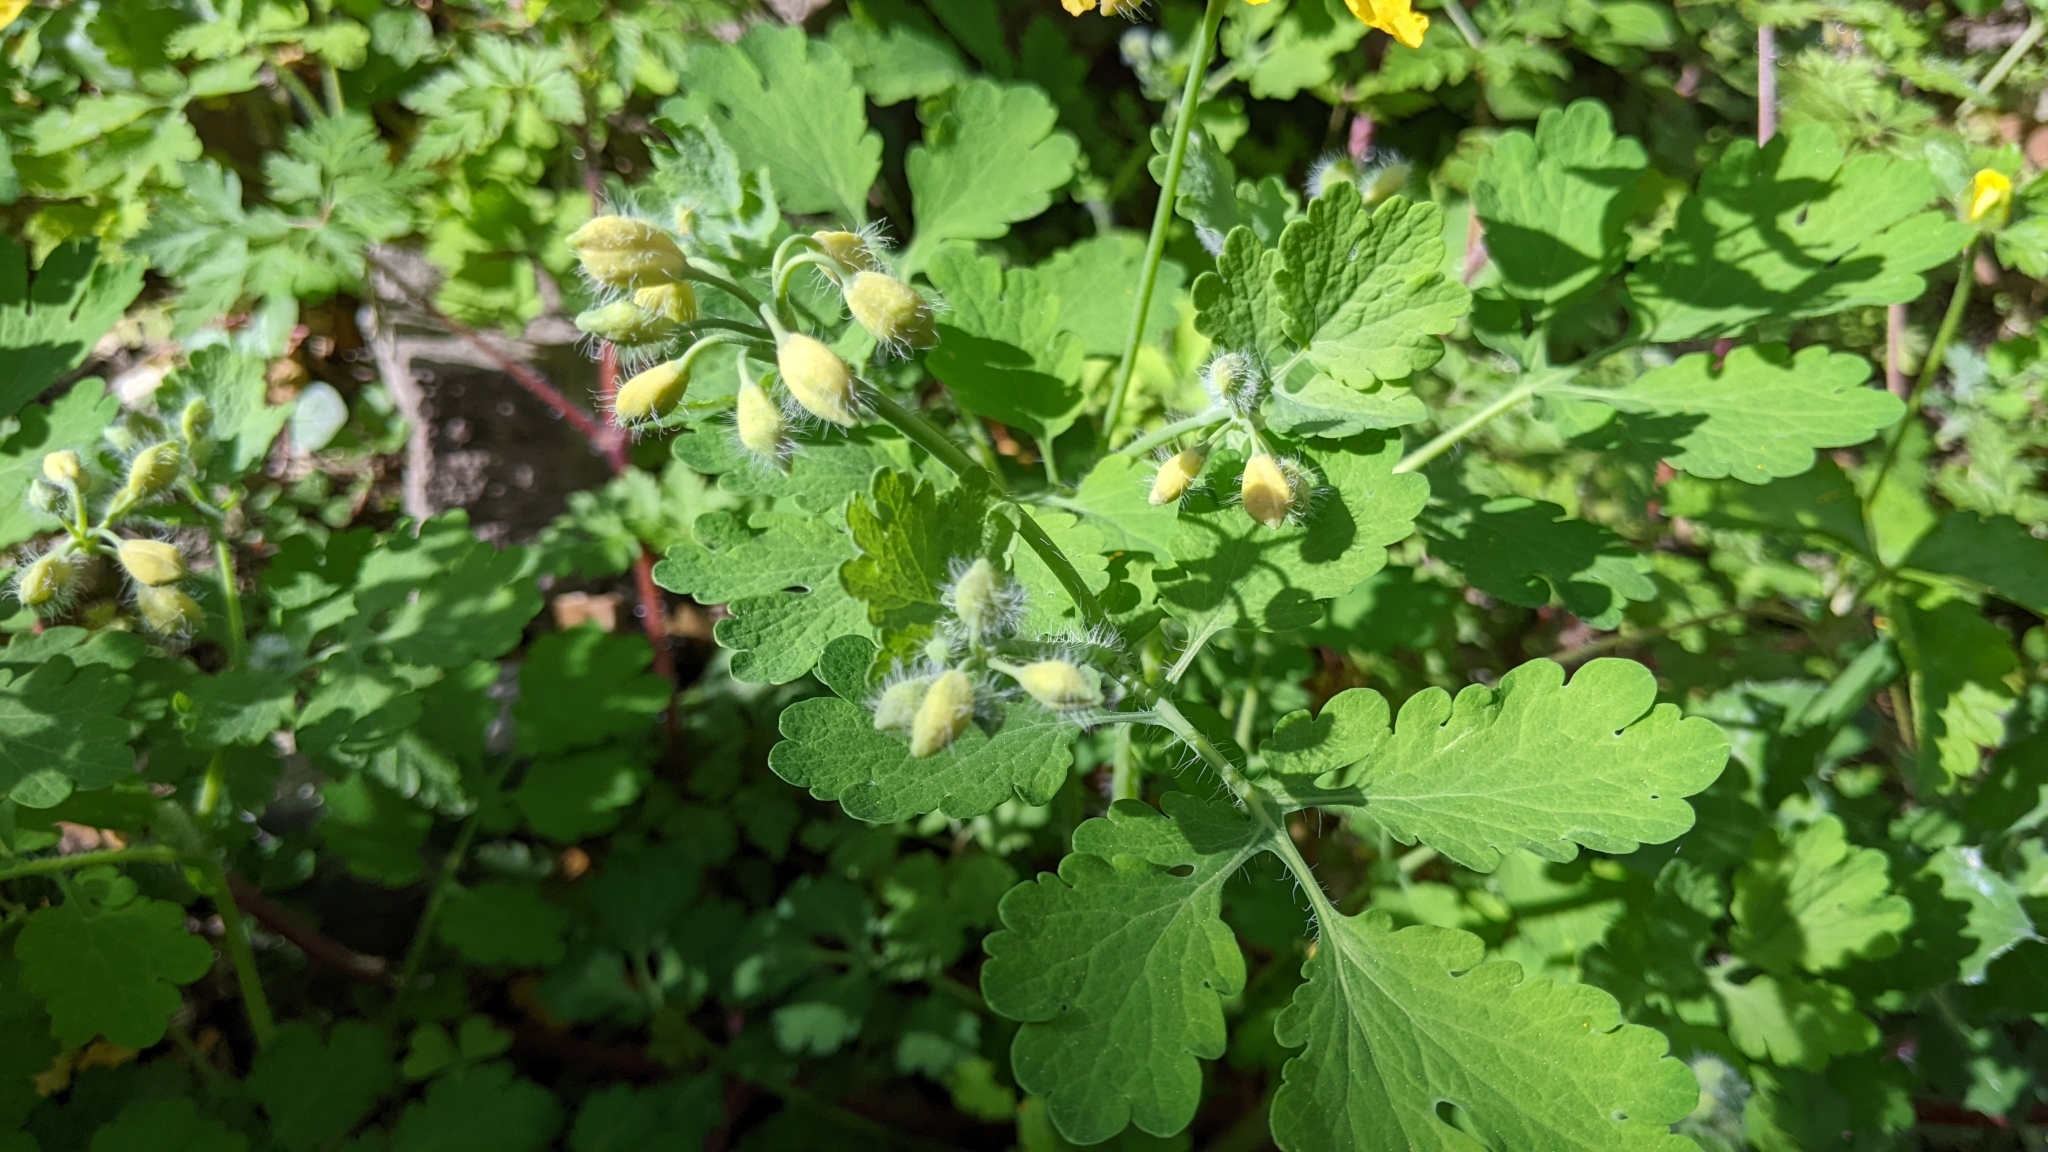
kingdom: Plantae
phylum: Tracheophyta
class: Magnoliopsida
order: Ranunculales
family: Papaveraceae
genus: Chelidonium
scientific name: Chelidonium majus
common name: Greater celandine
